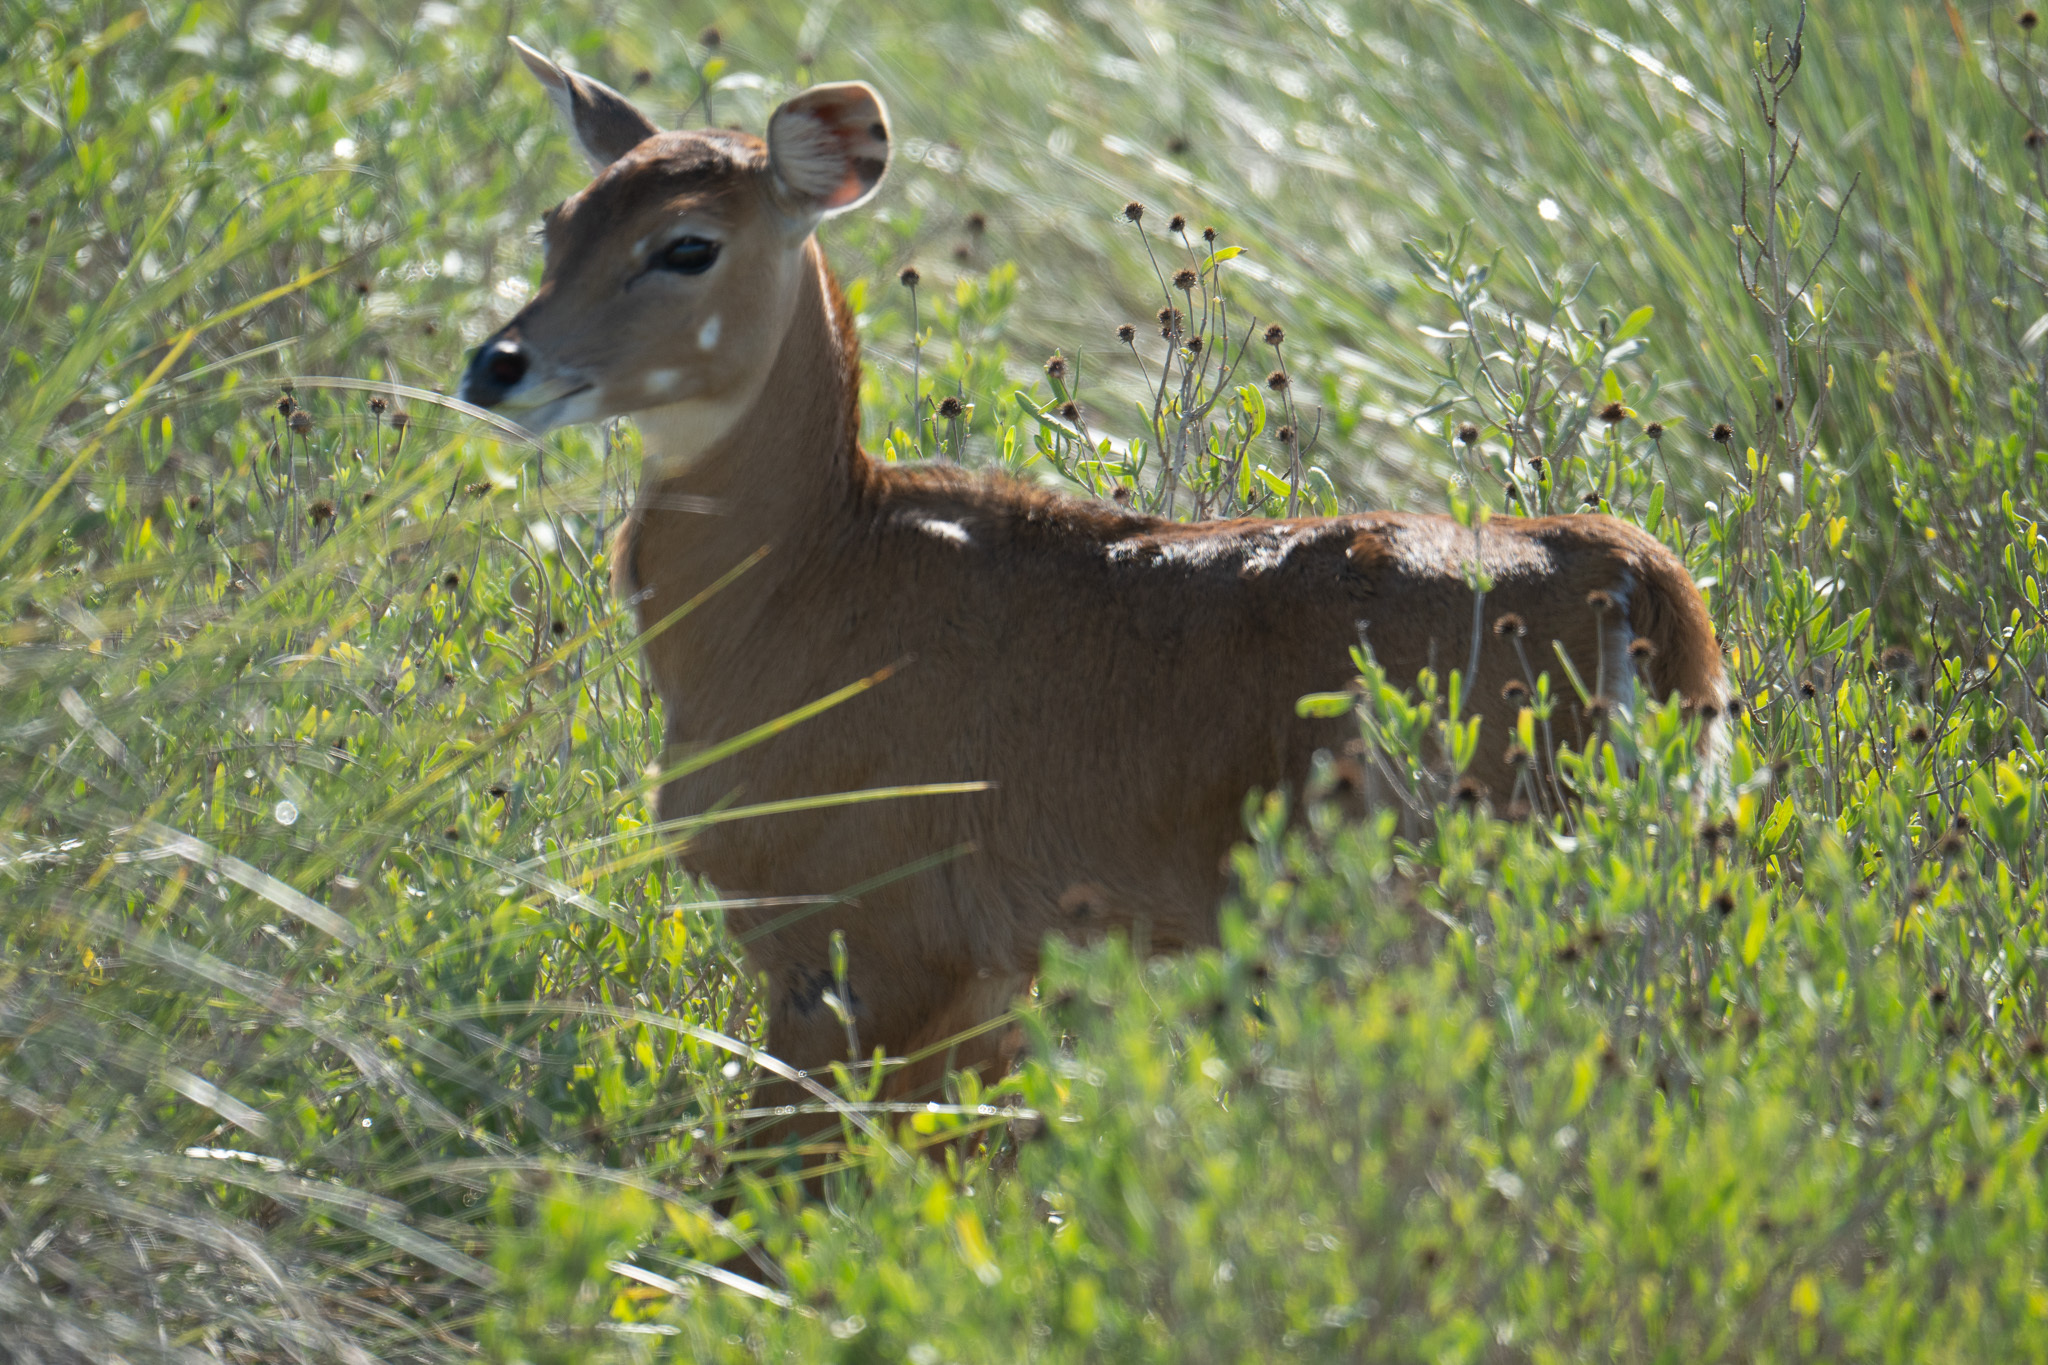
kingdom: Animalia
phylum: Chordata
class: Mammalia
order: Artiodactyla
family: Bovidae
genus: Boselaphus
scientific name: Boselaphus tragocamelus
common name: Nilgai
